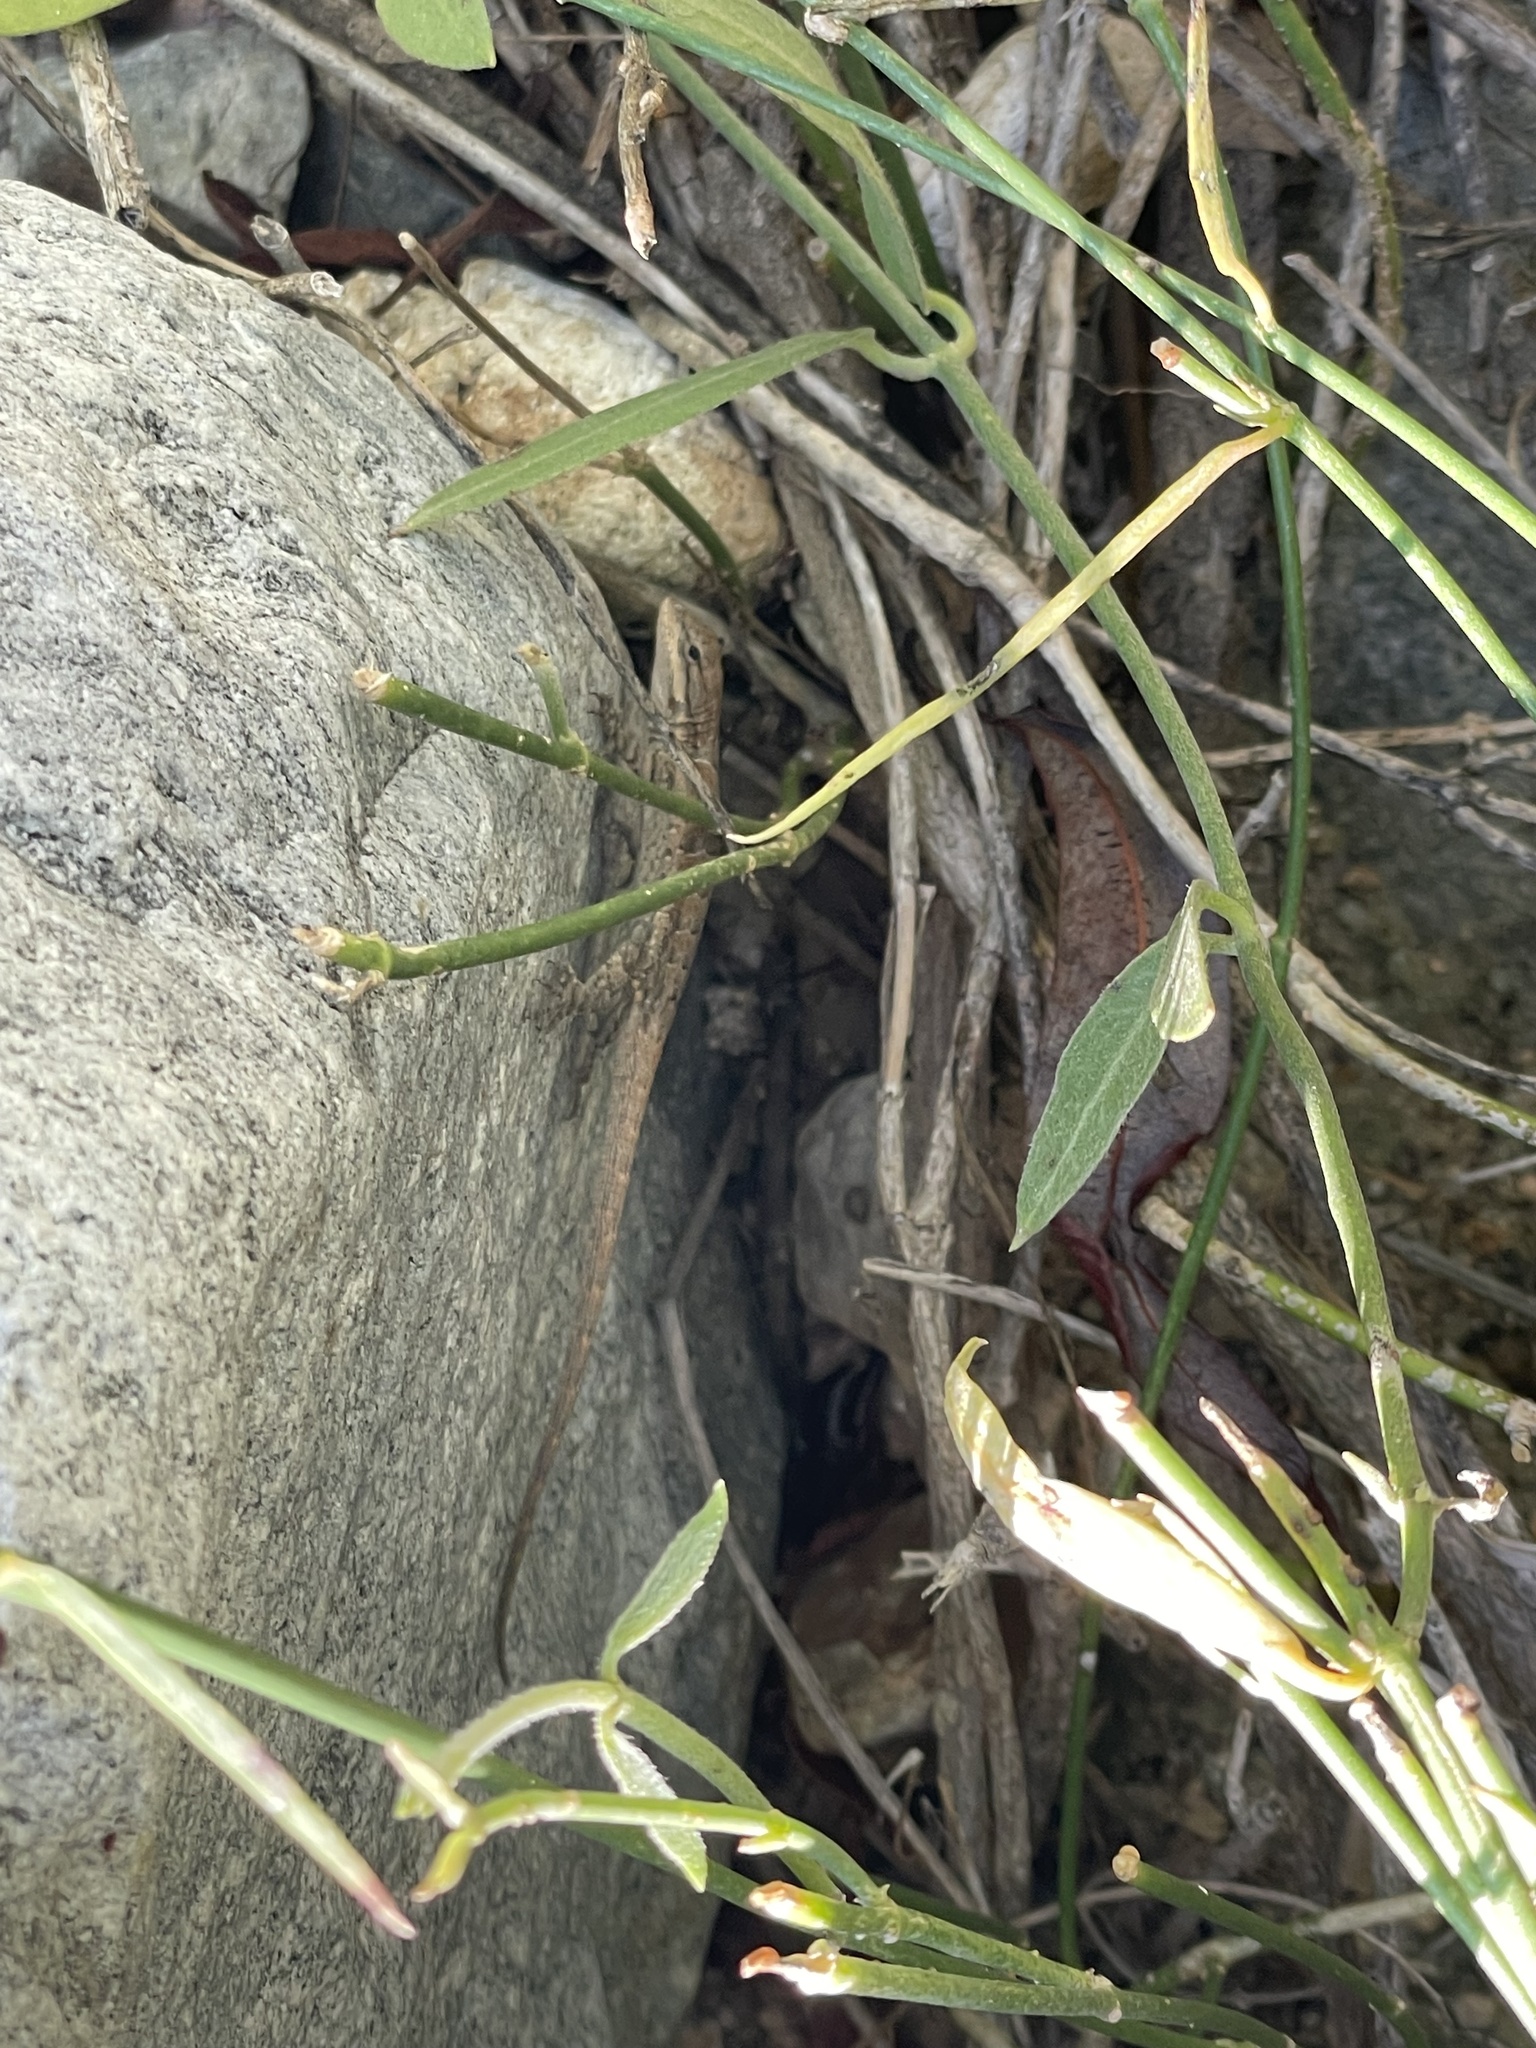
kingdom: Plantae
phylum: Tracheophyta
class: Magnoliopsida
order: Gentianales
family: Apocynaceae
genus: Funastrum
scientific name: Funastrum clausum
